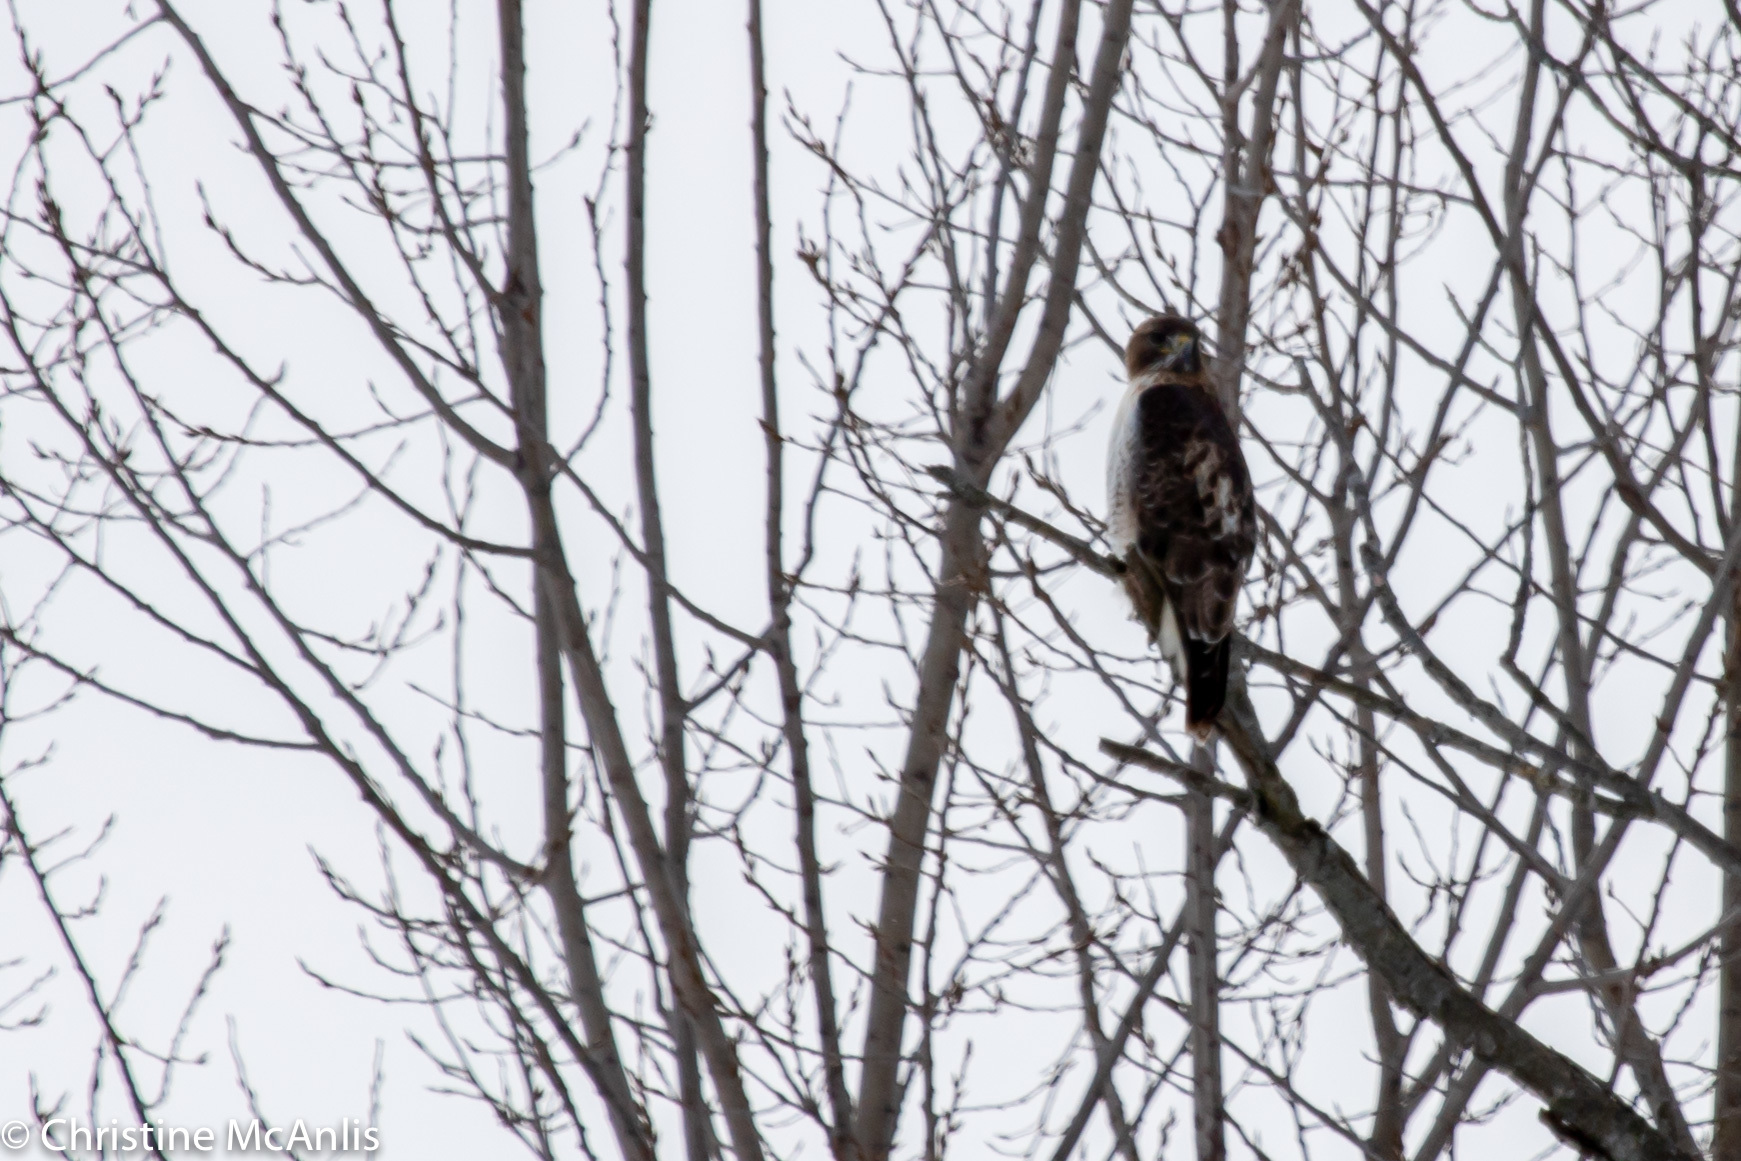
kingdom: Animalia
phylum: Chordata
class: Aves
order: Accipitriformes
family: Accipitridae
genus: Buteo
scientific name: Buteo jamaicensis
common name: Red-tailed hawk
